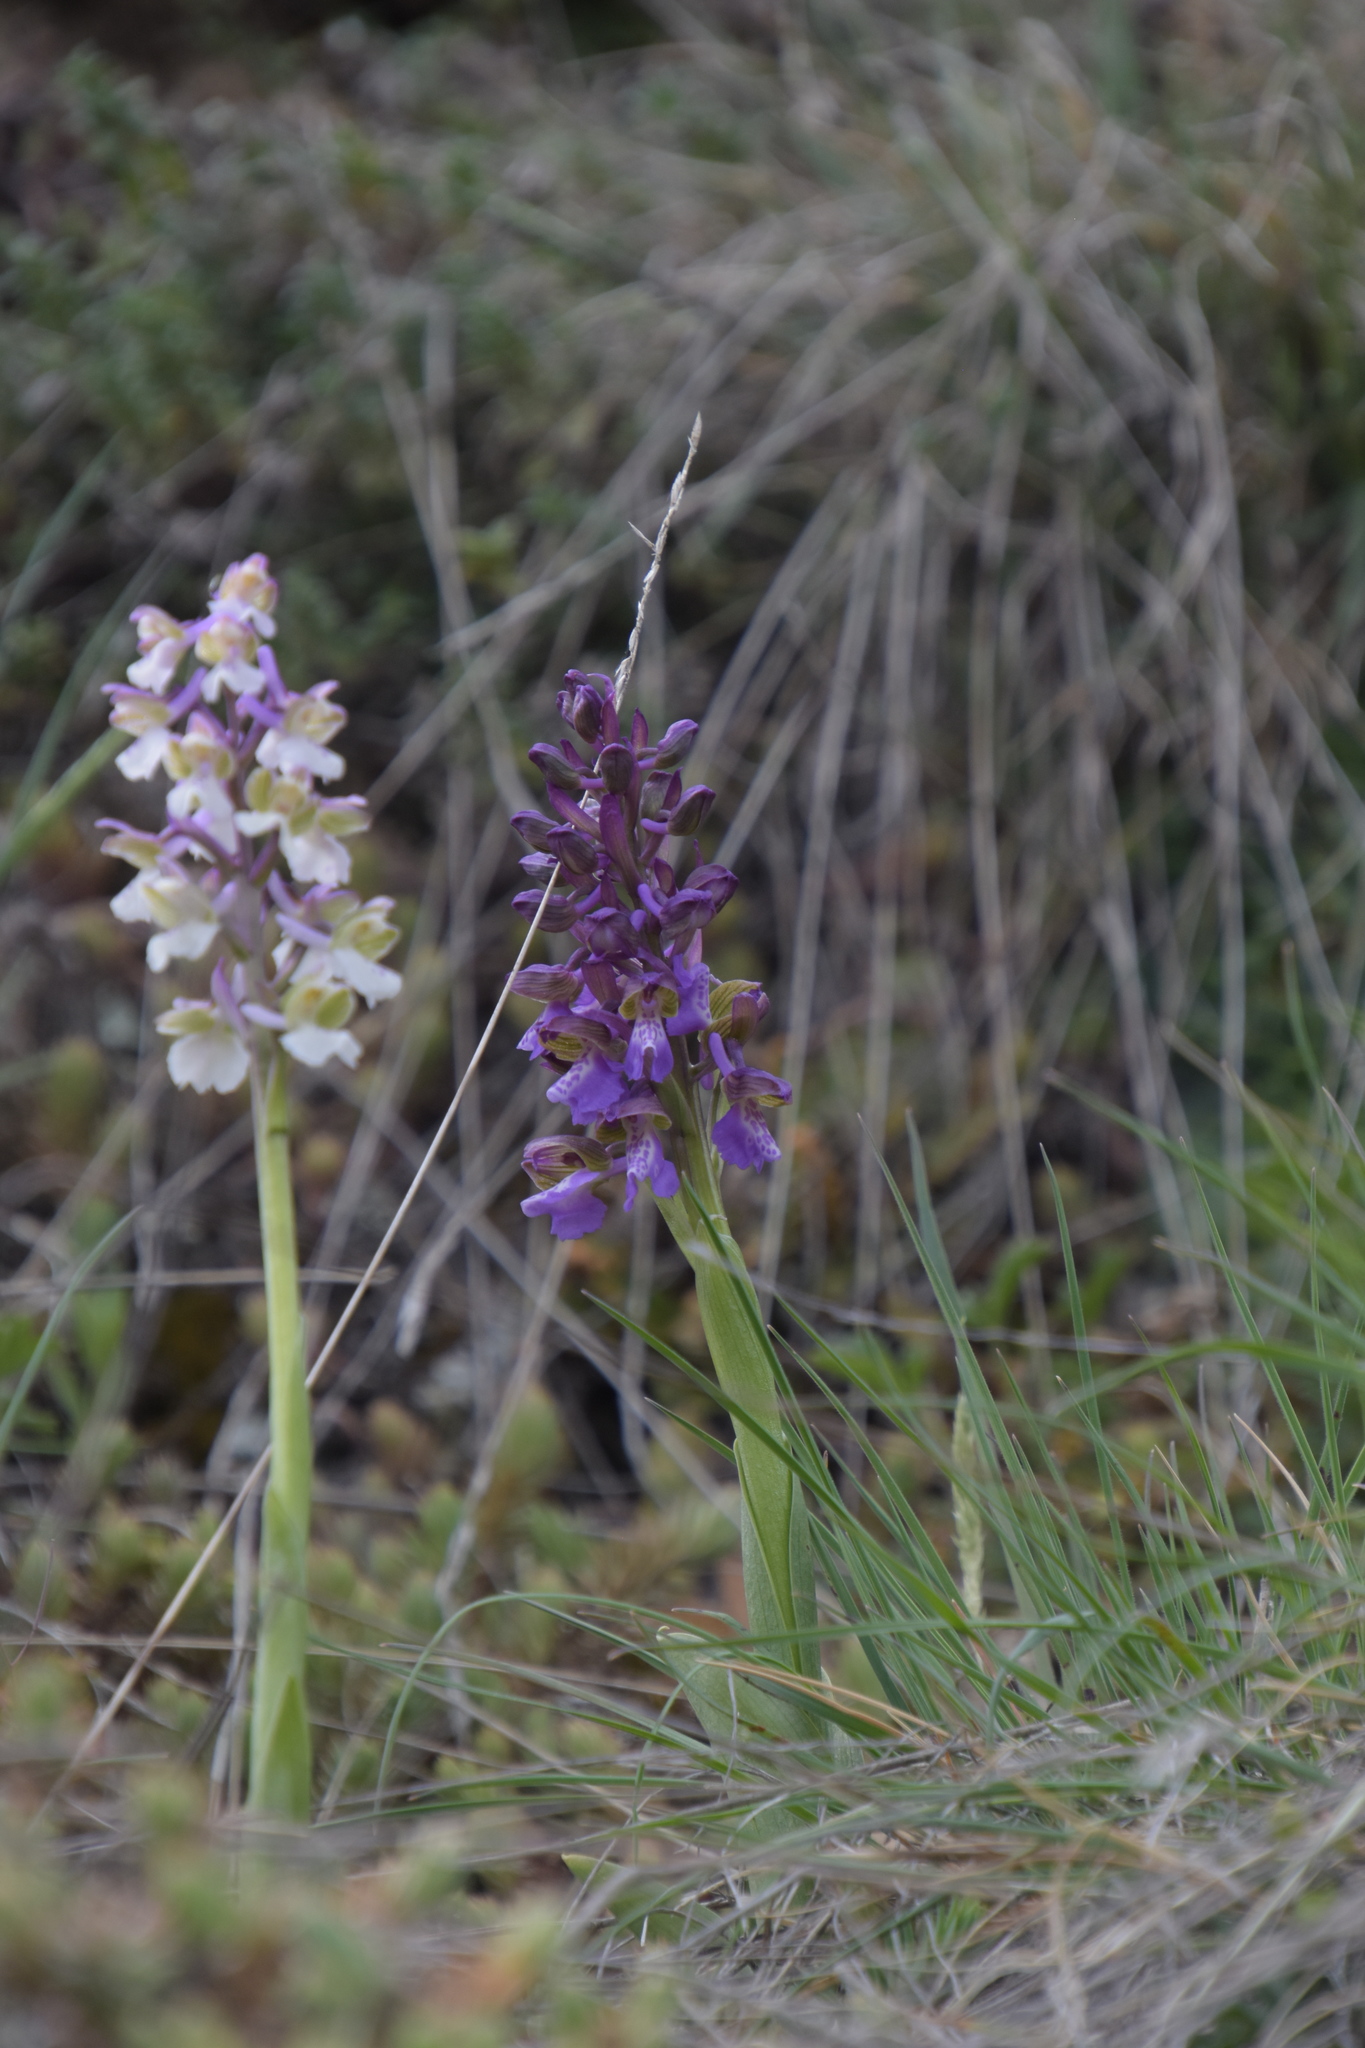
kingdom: Plantae
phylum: Tracheophyta
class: Liliopsida
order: Asparagales
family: Orchidaceae
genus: Anacamptis
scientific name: Anacamptis morio
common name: Green-winged orchid
